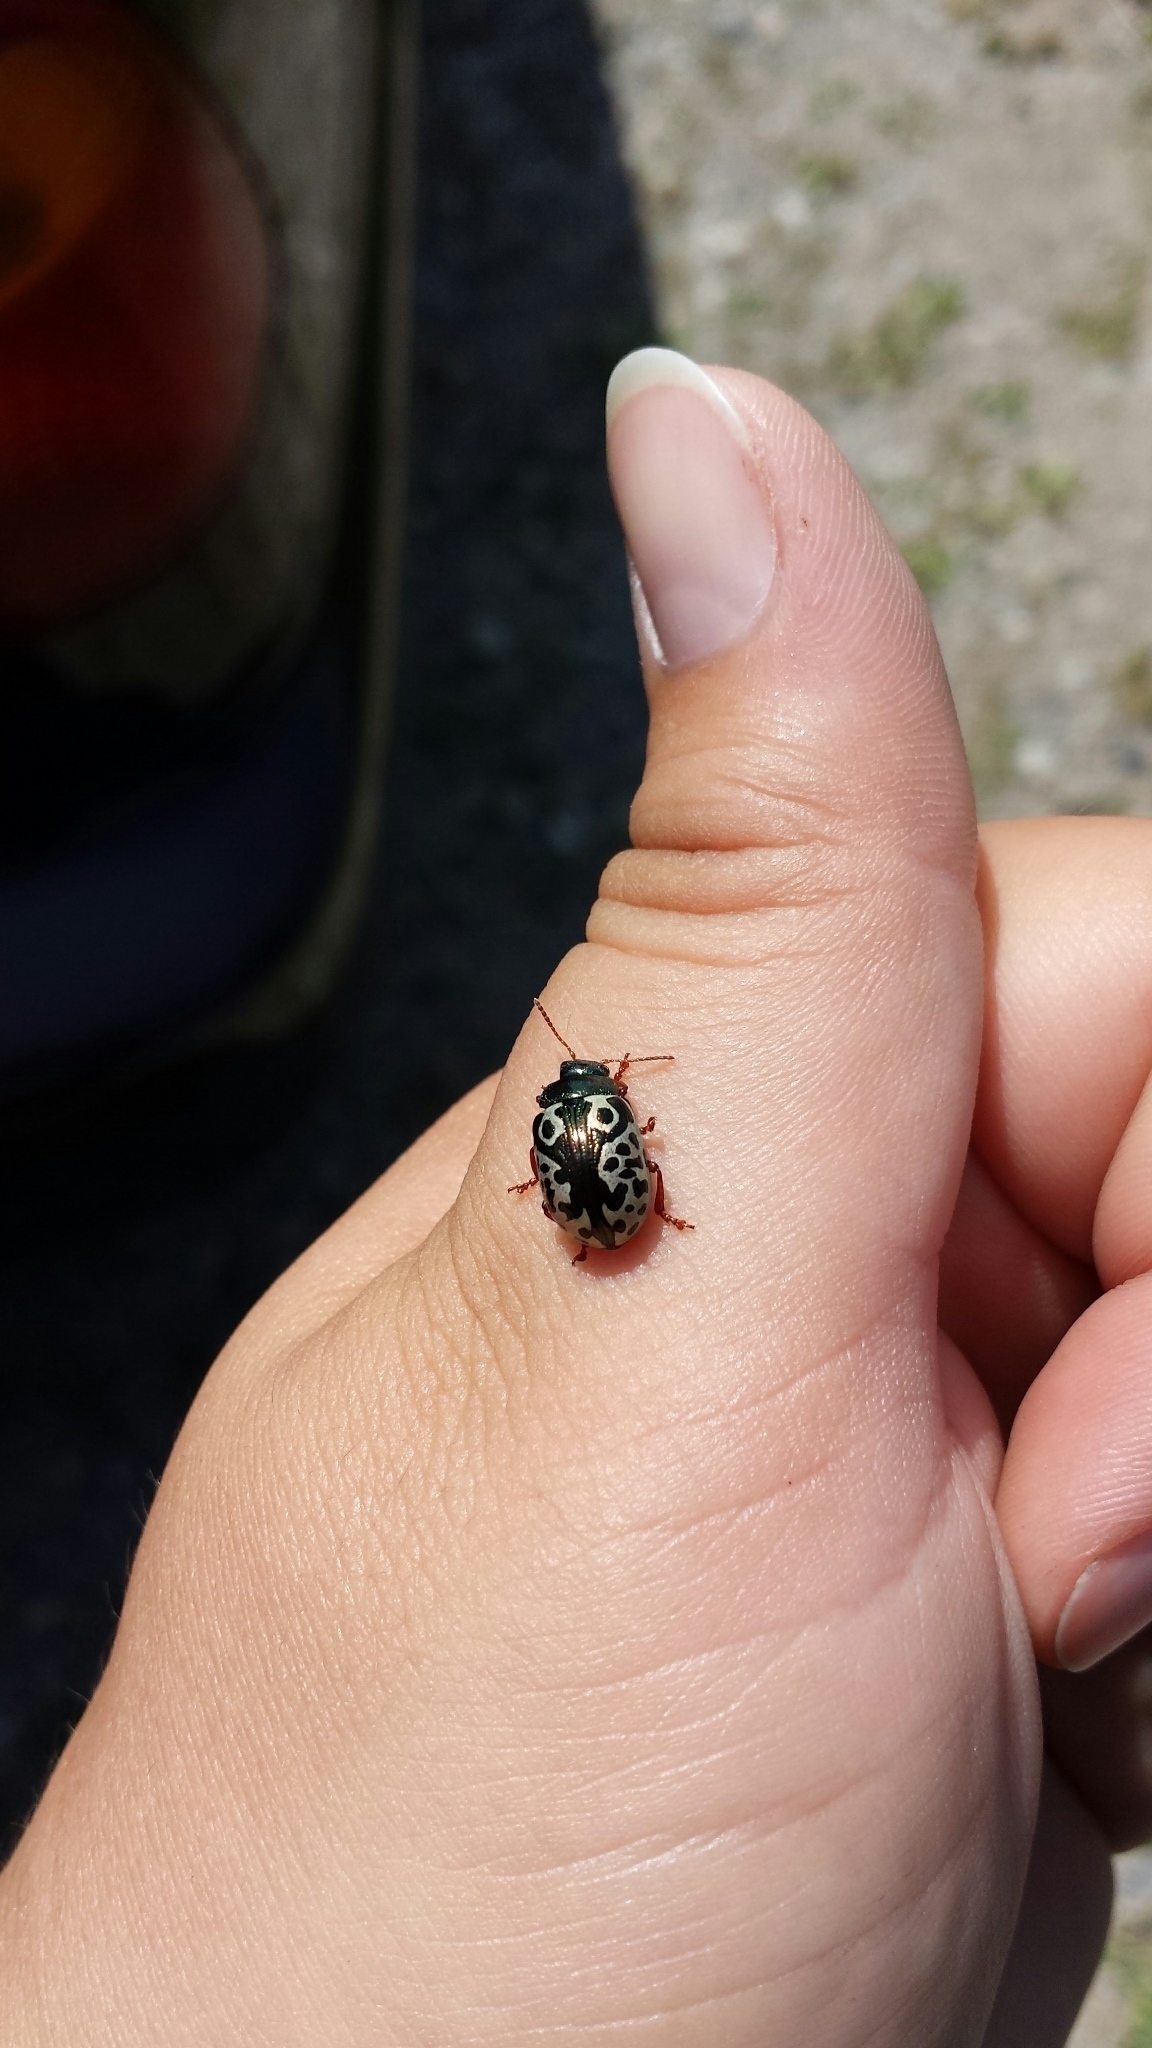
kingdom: Animalia
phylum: Arthropoda
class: Insecta
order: Coleoptera
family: Chrysomelidae
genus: Calligrapha
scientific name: Calligrapha ignota
